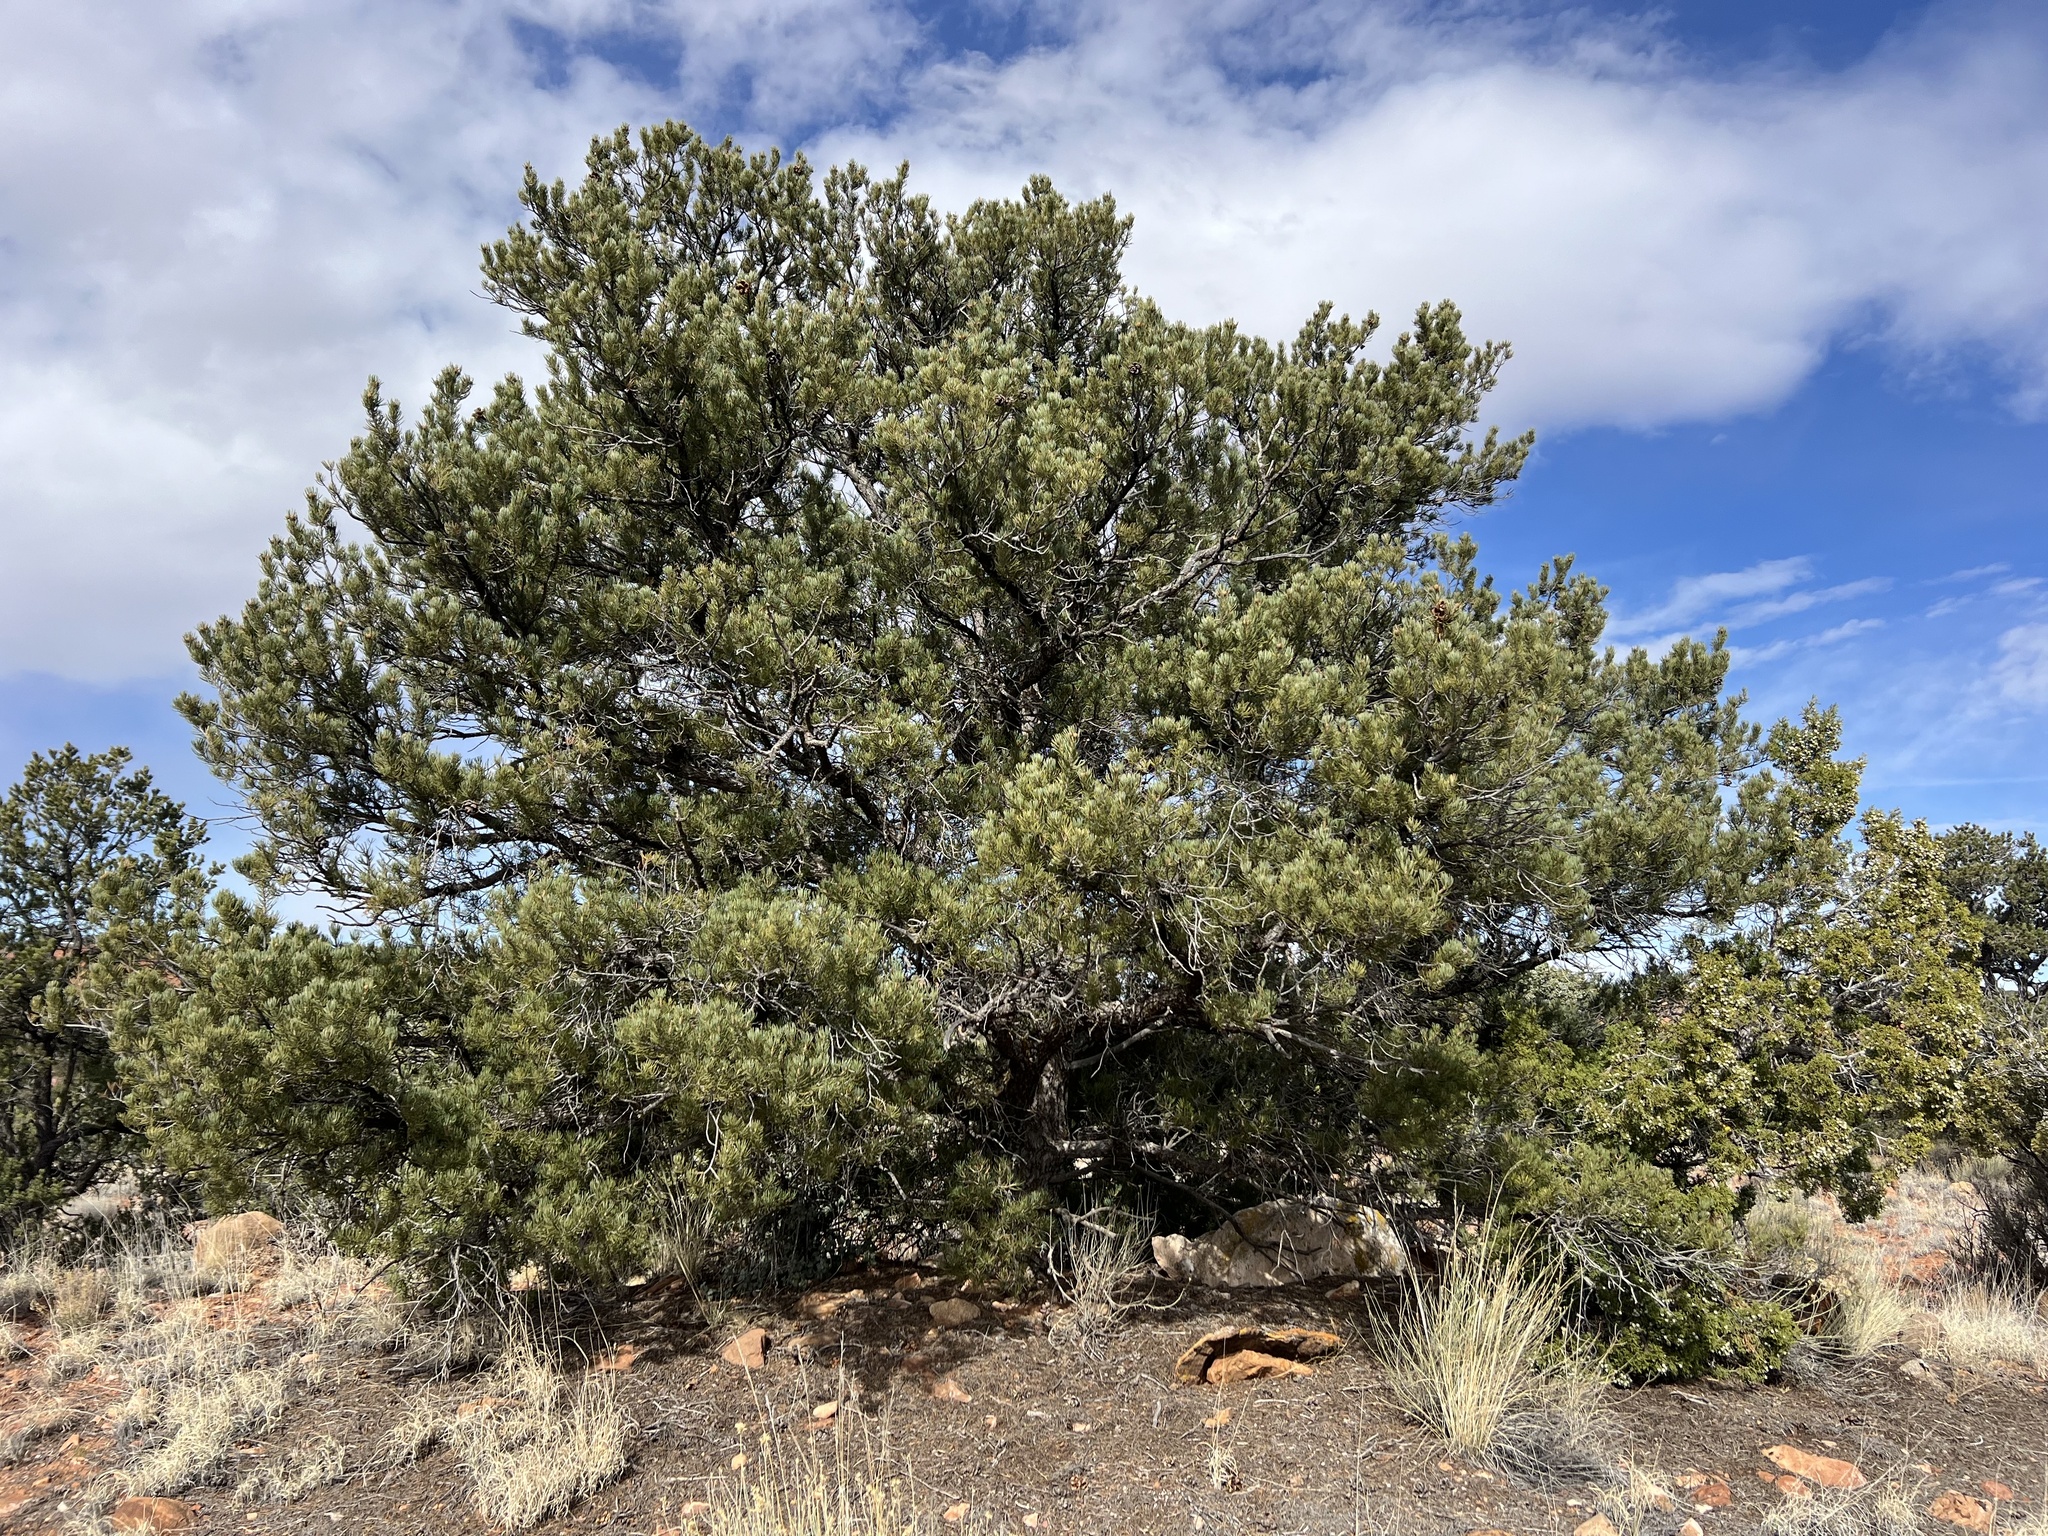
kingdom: Plantae
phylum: Tracheophyta
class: Pinopsida
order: Pinales
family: Pinaceae
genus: Pinus
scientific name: Pinus monophylla
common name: One-leaved nut pine
